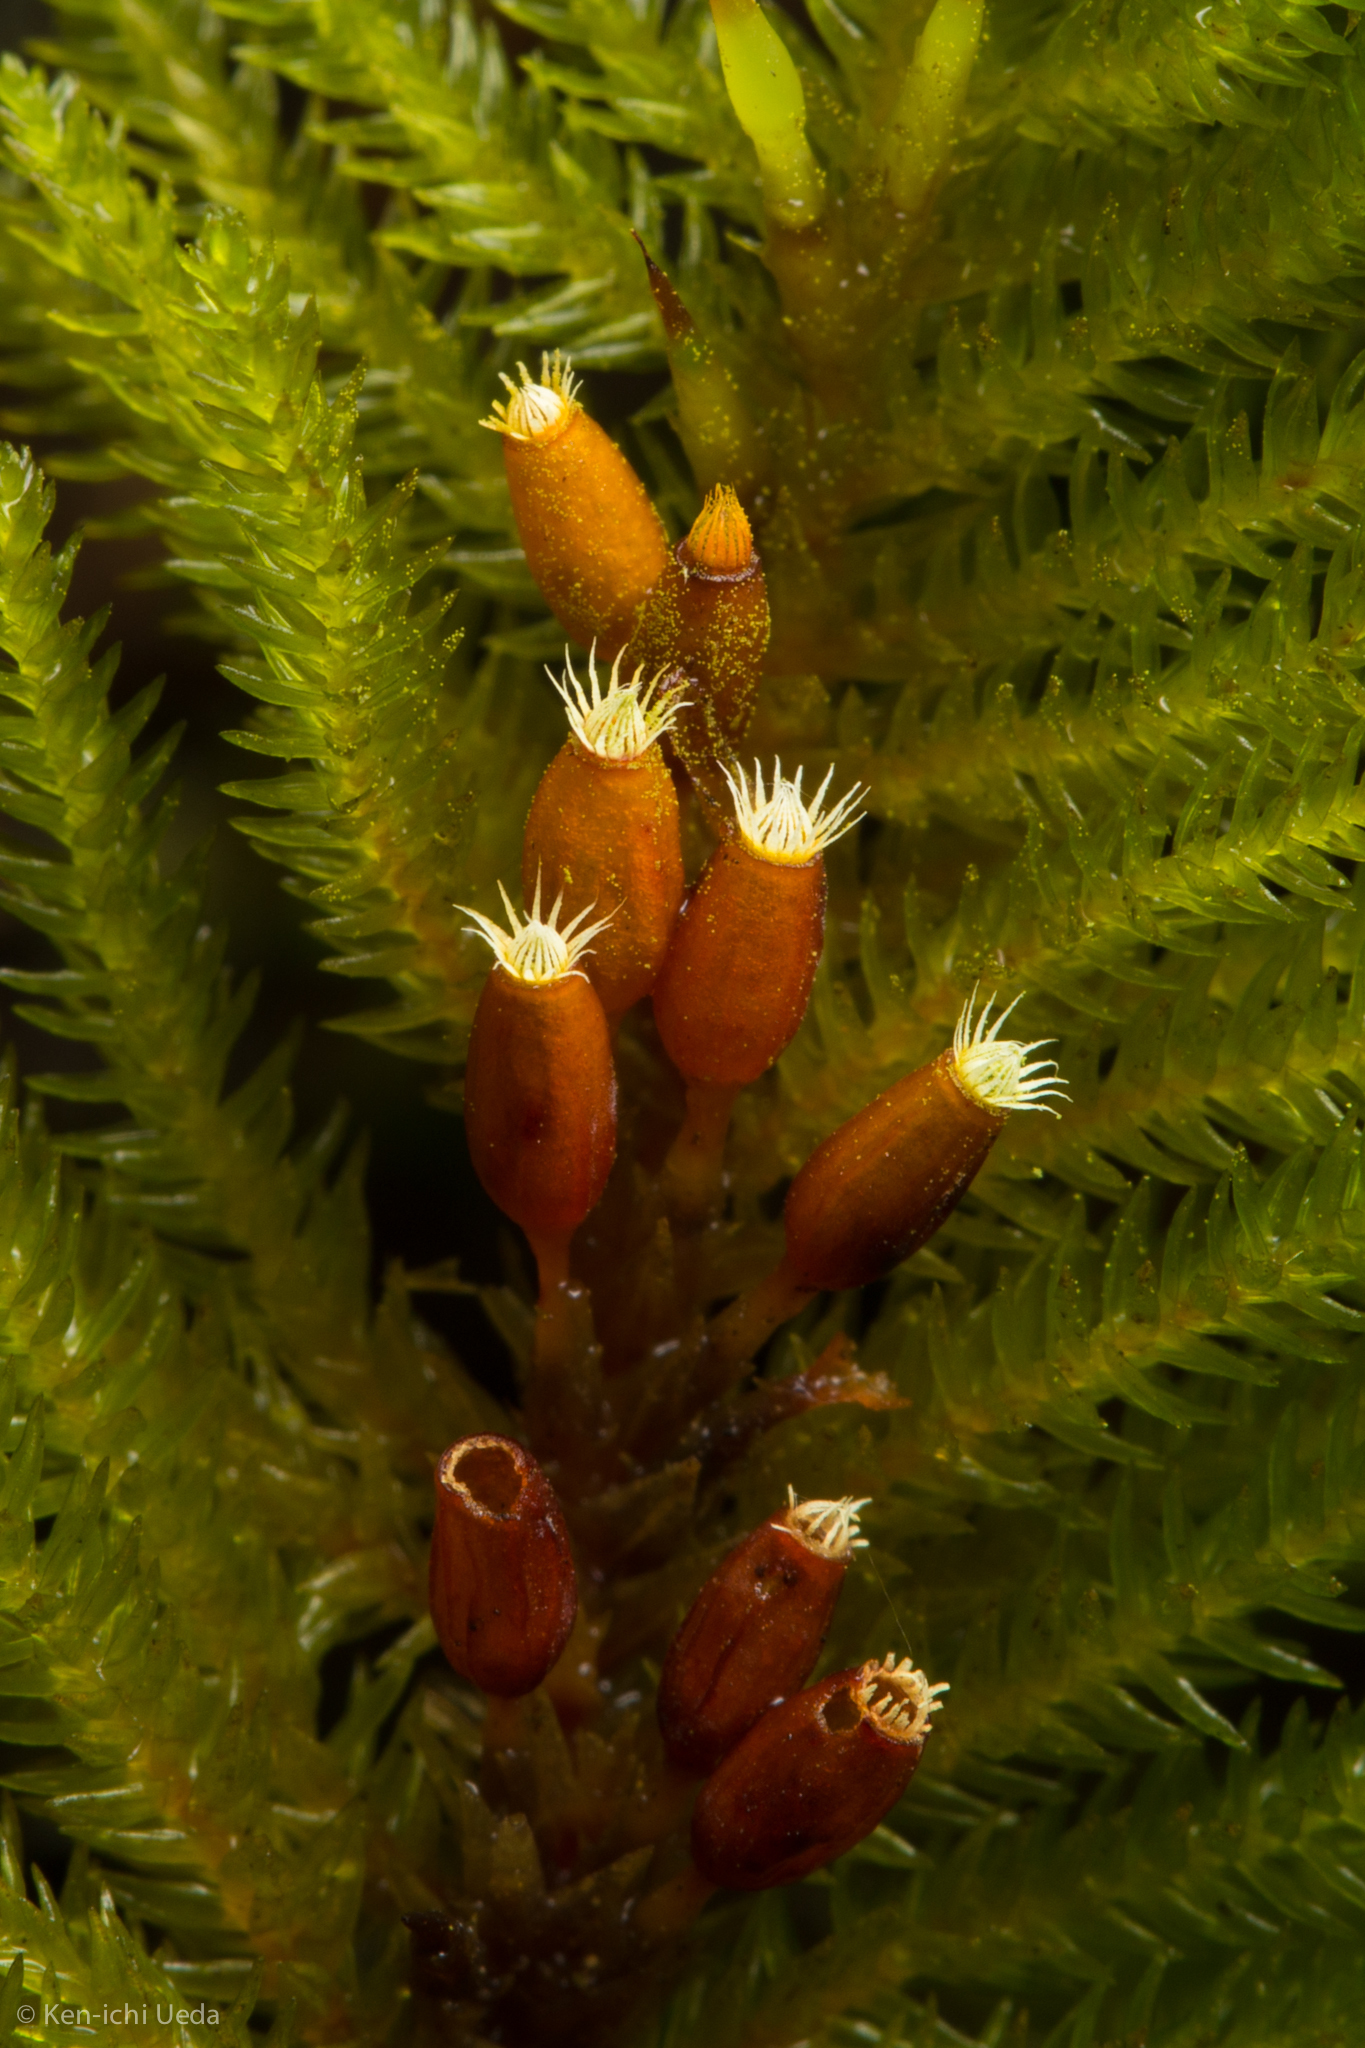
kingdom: Plantae
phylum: Bryophyta
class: Bryopsida
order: Hypnales
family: Cryphaeaceae
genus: Dendroalsia
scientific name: Dendroalsia abietina
